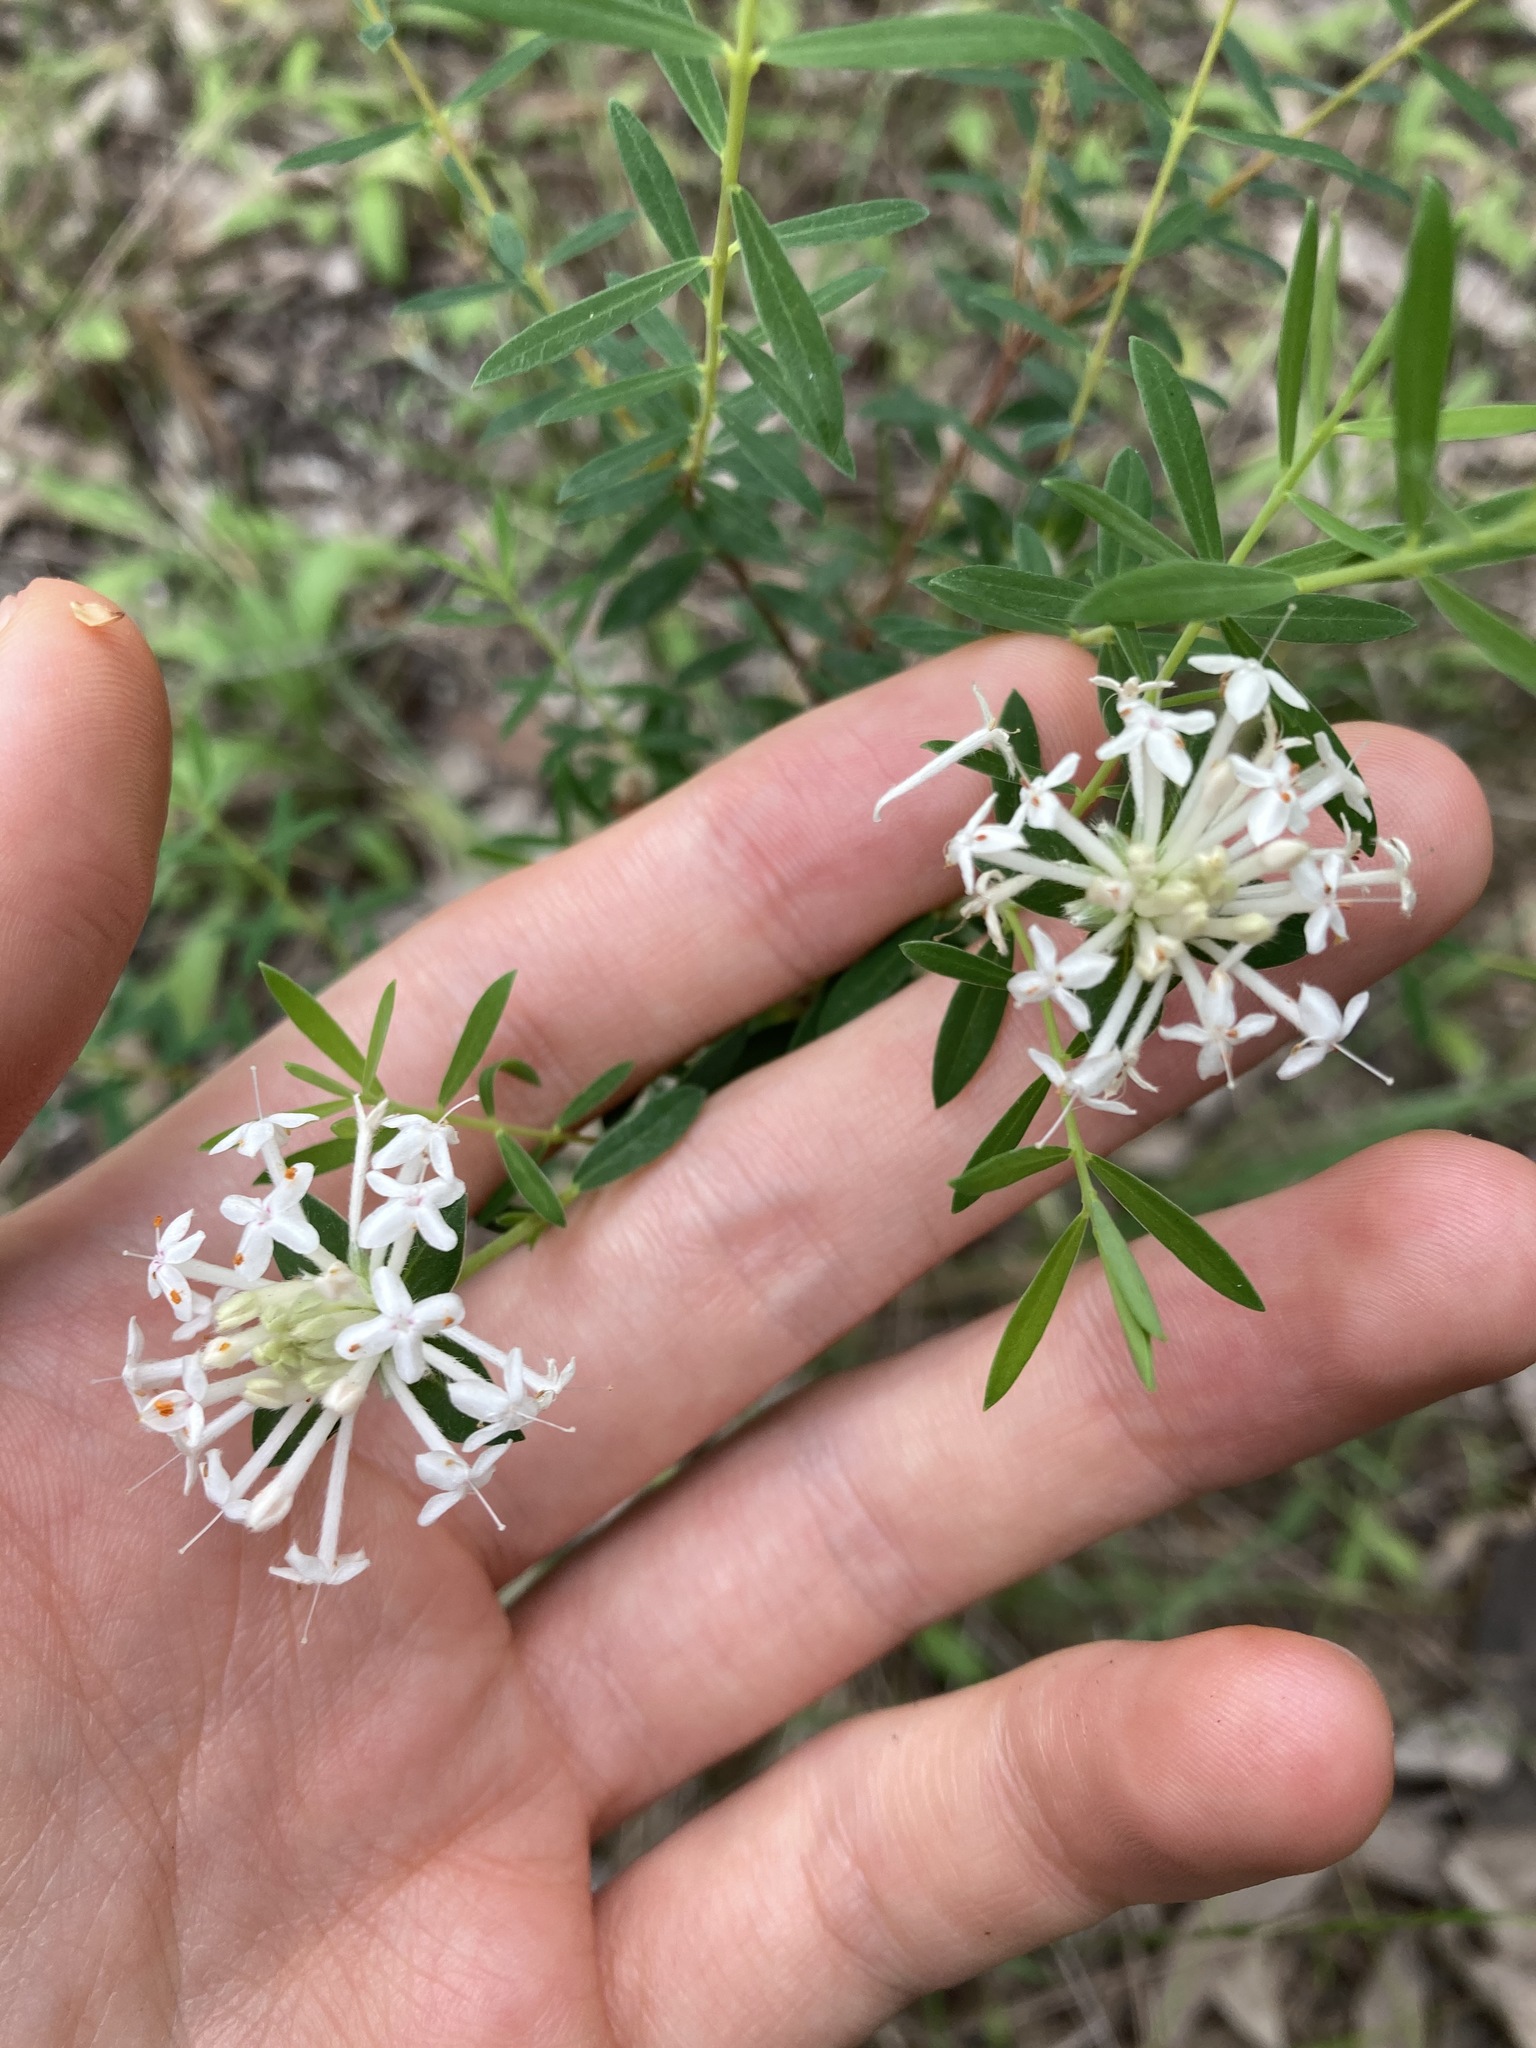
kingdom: Plantae
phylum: Tracheophyta
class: Magnoliopsida
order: Malvales
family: Thymelaeaceae
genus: Pimelea
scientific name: Pimelea linifolia
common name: Queen-of-the-bush
